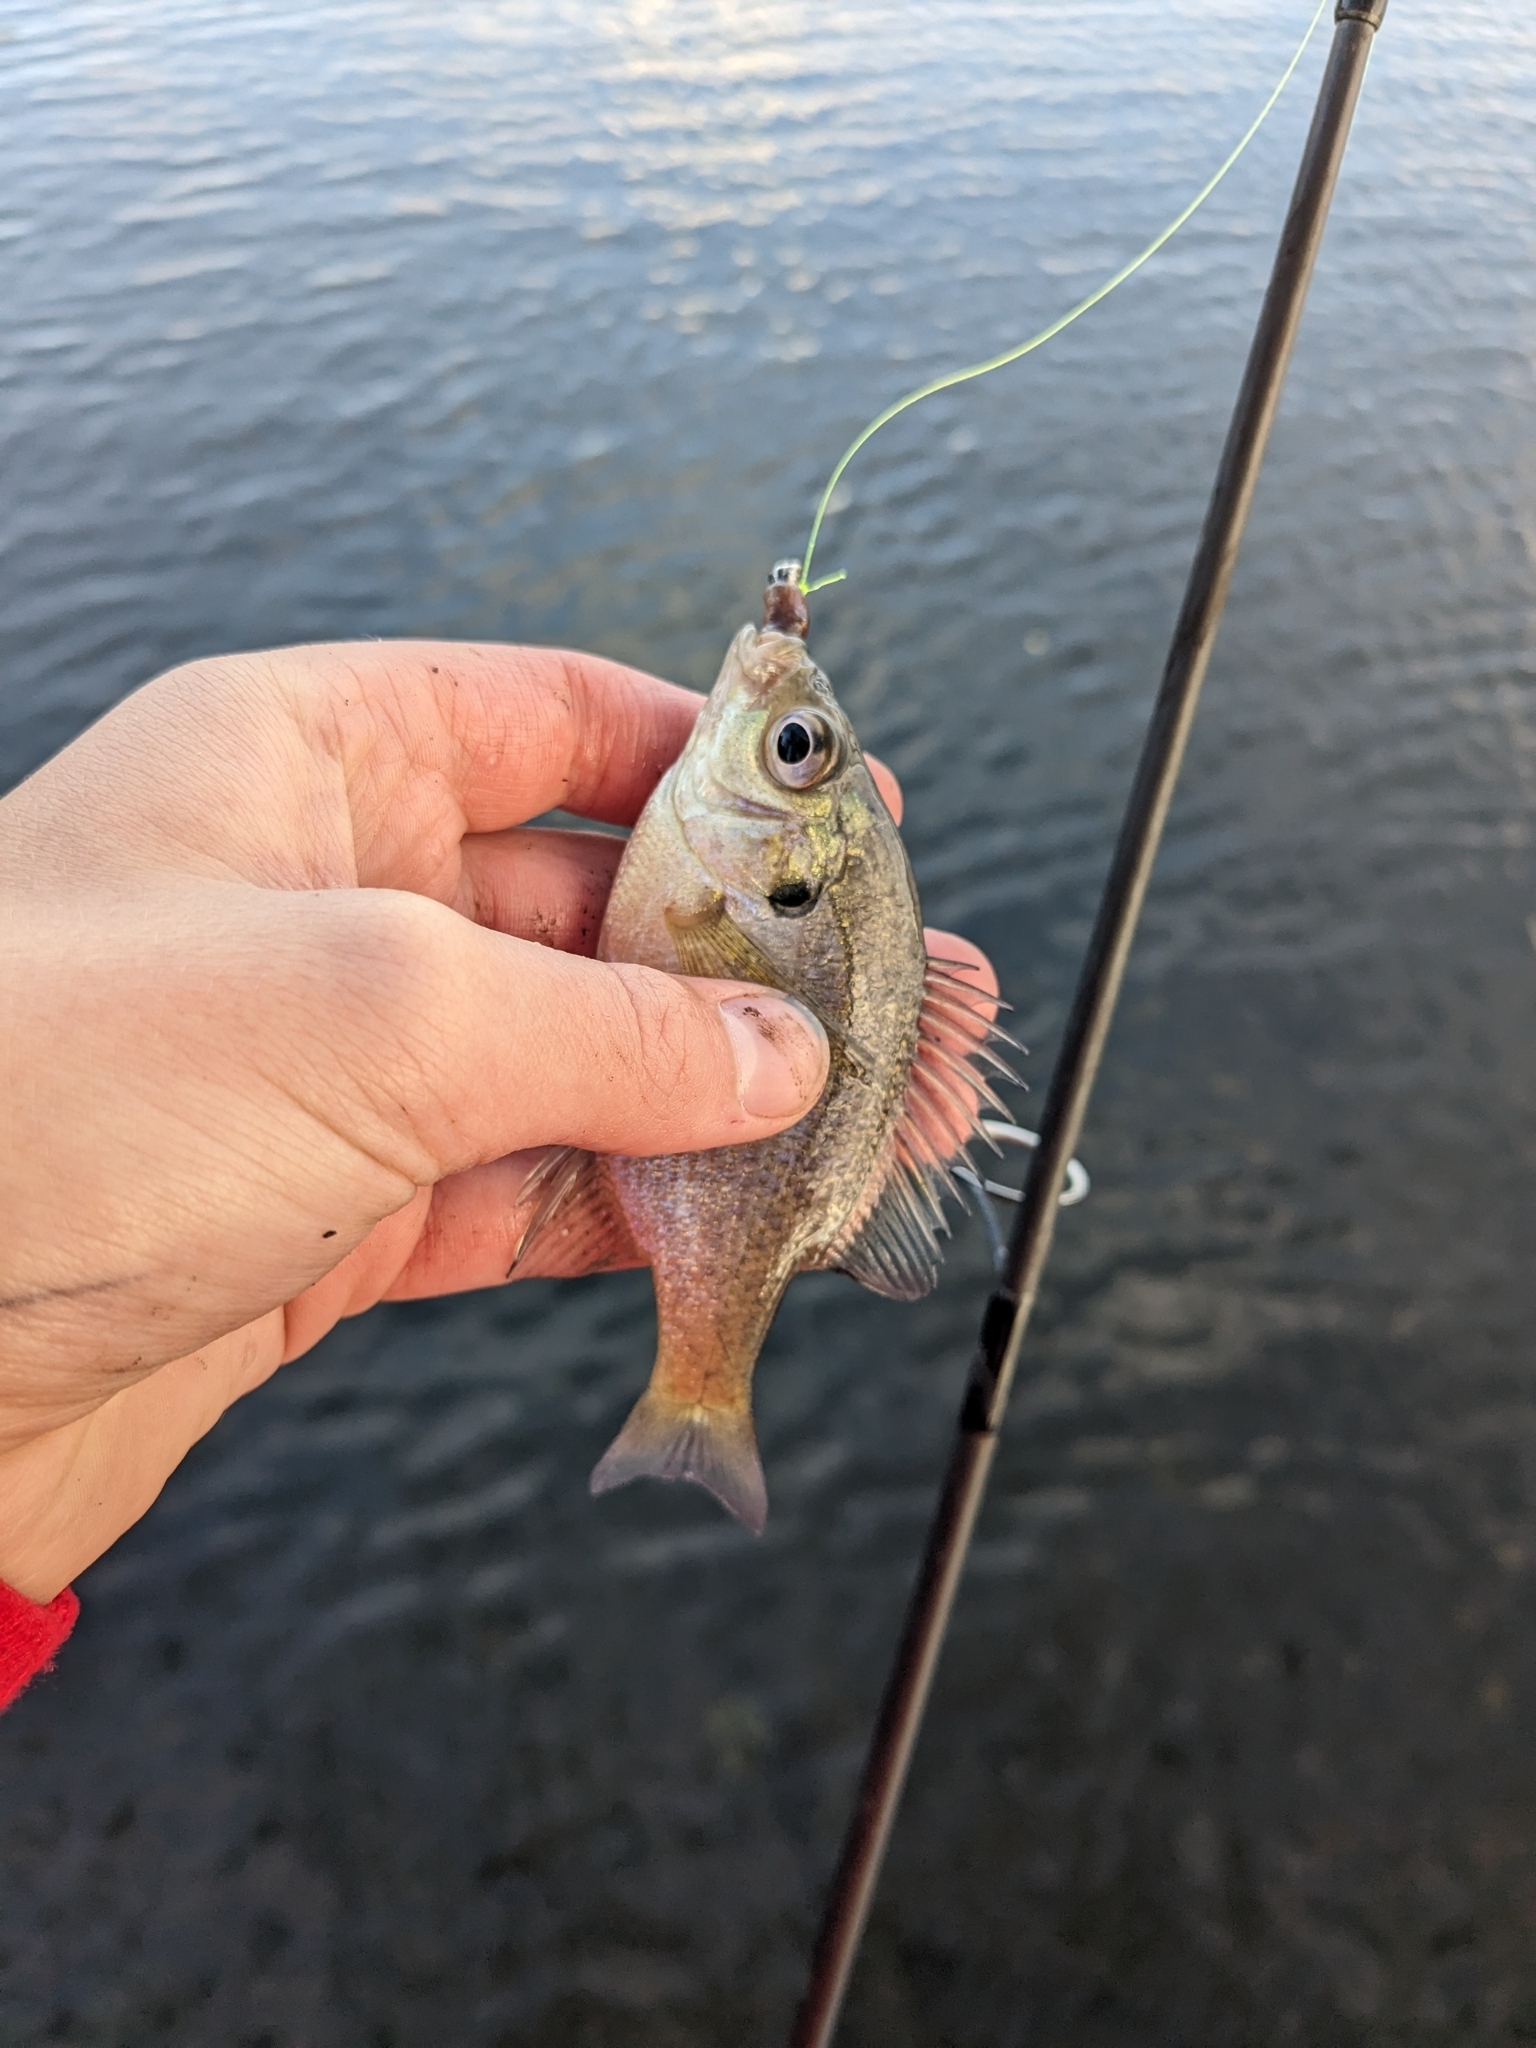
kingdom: Animalia
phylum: Chordata
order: Perciformes
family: Centrarchidae
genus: Lepomis
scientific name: Lepomis macrochirus
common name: Bluegill
